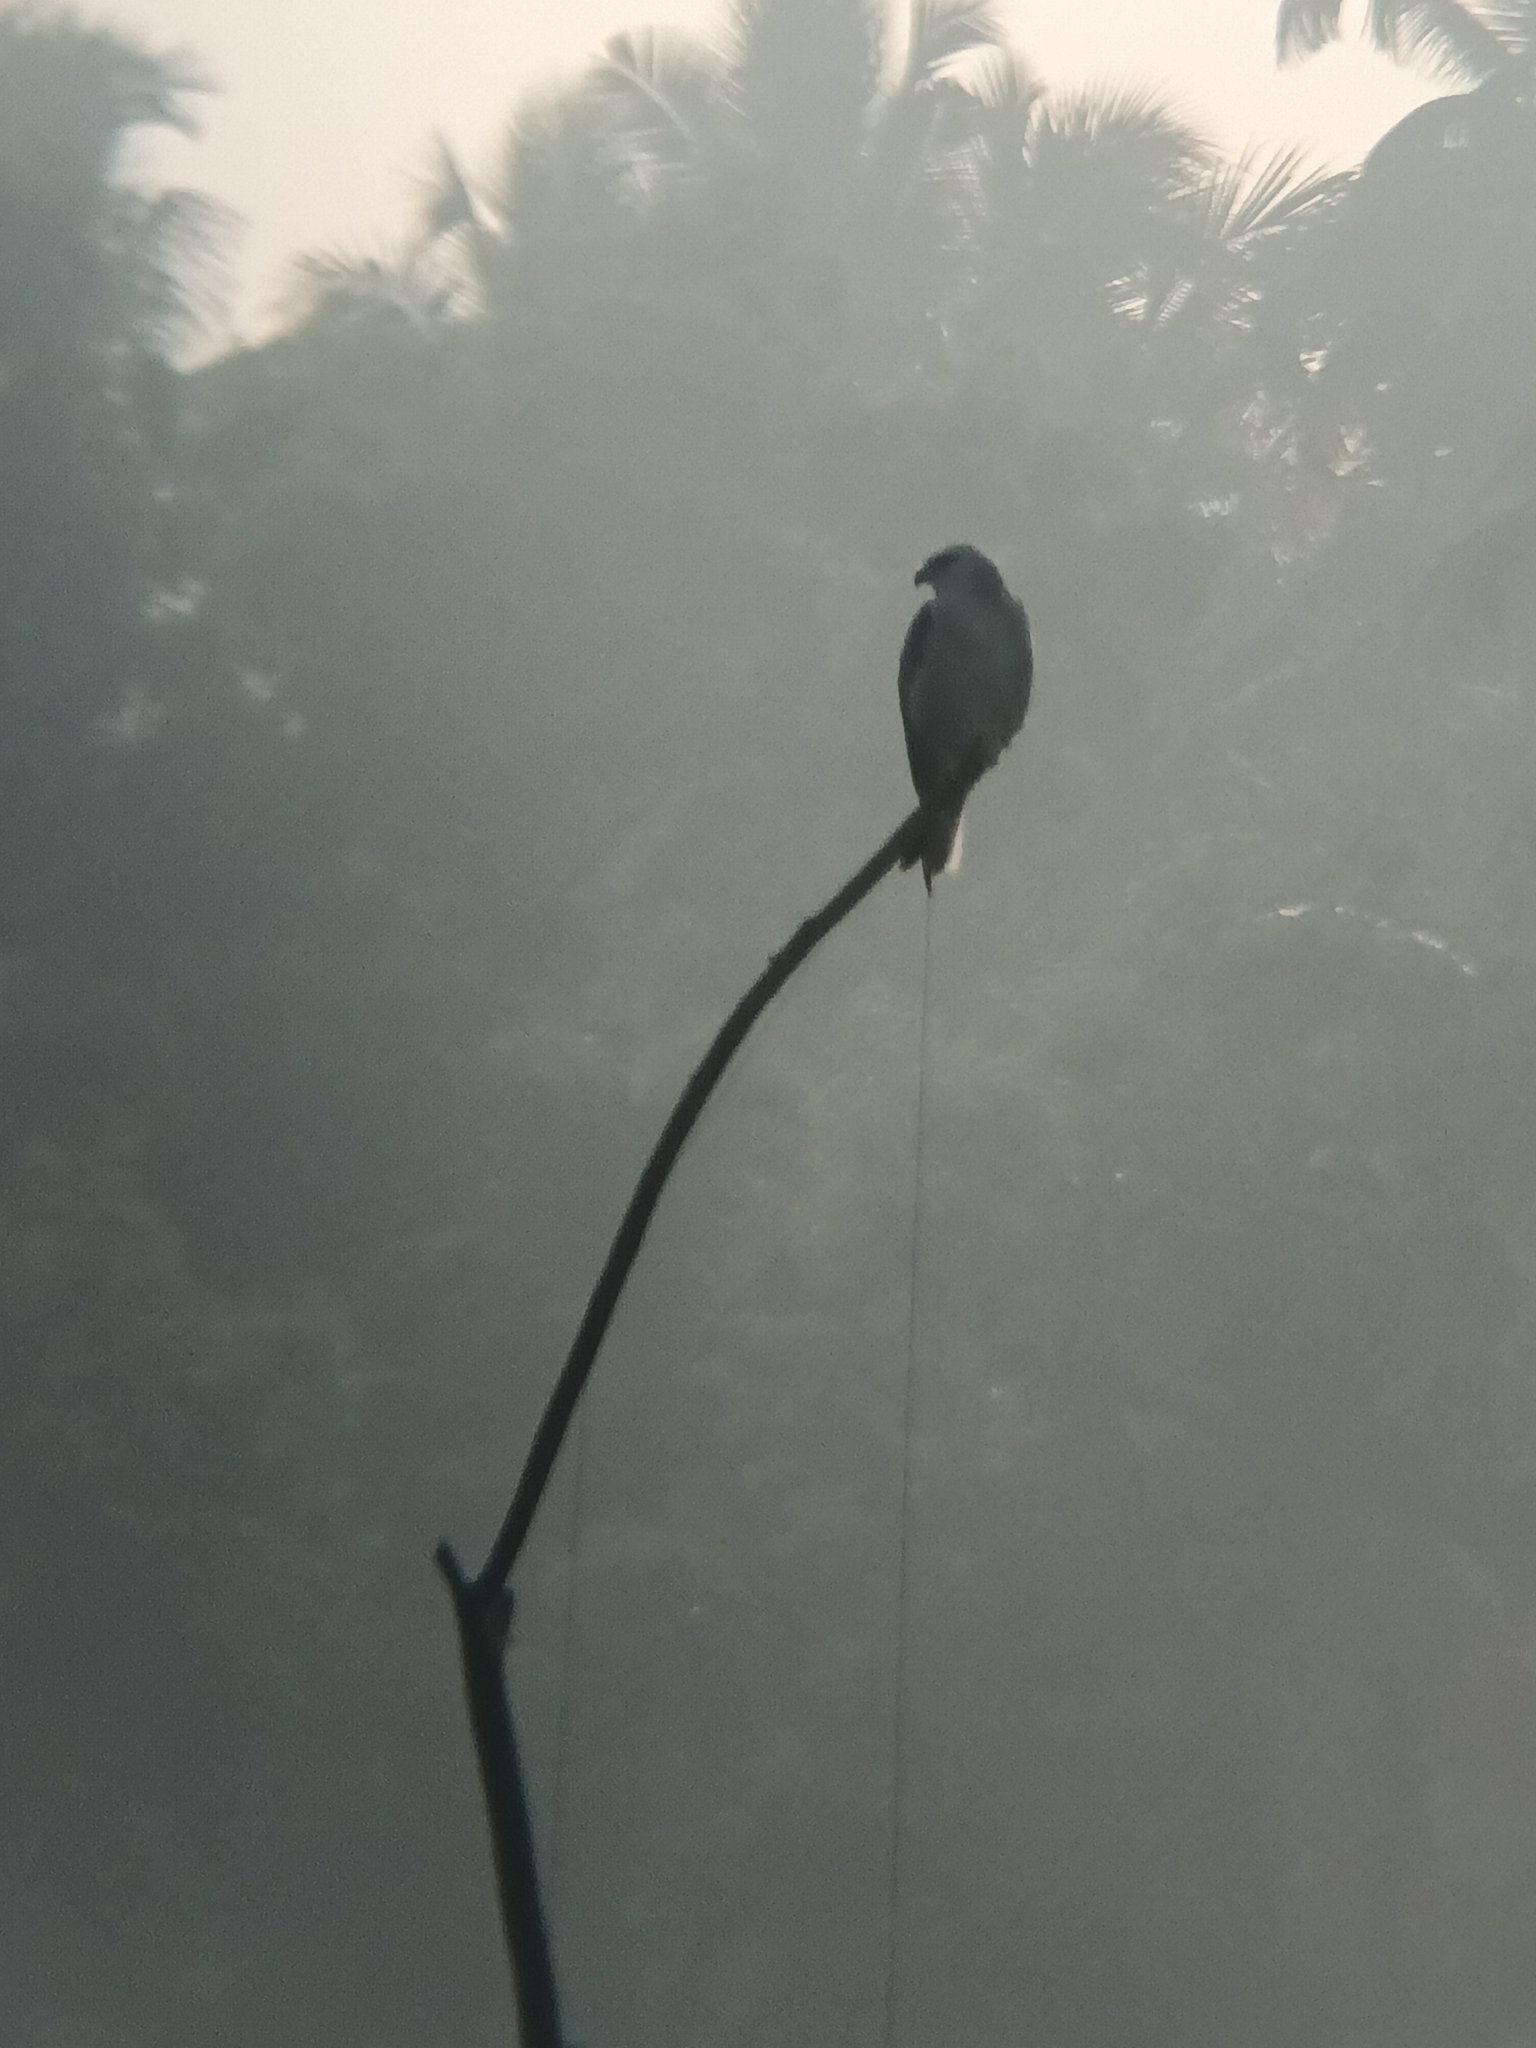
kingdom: Animalia
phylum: Chordata
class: Aves
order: Accipitriformes
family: Accipitridae
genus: Elanus
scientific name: Elanus caeruleus
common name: Black-winged kite
